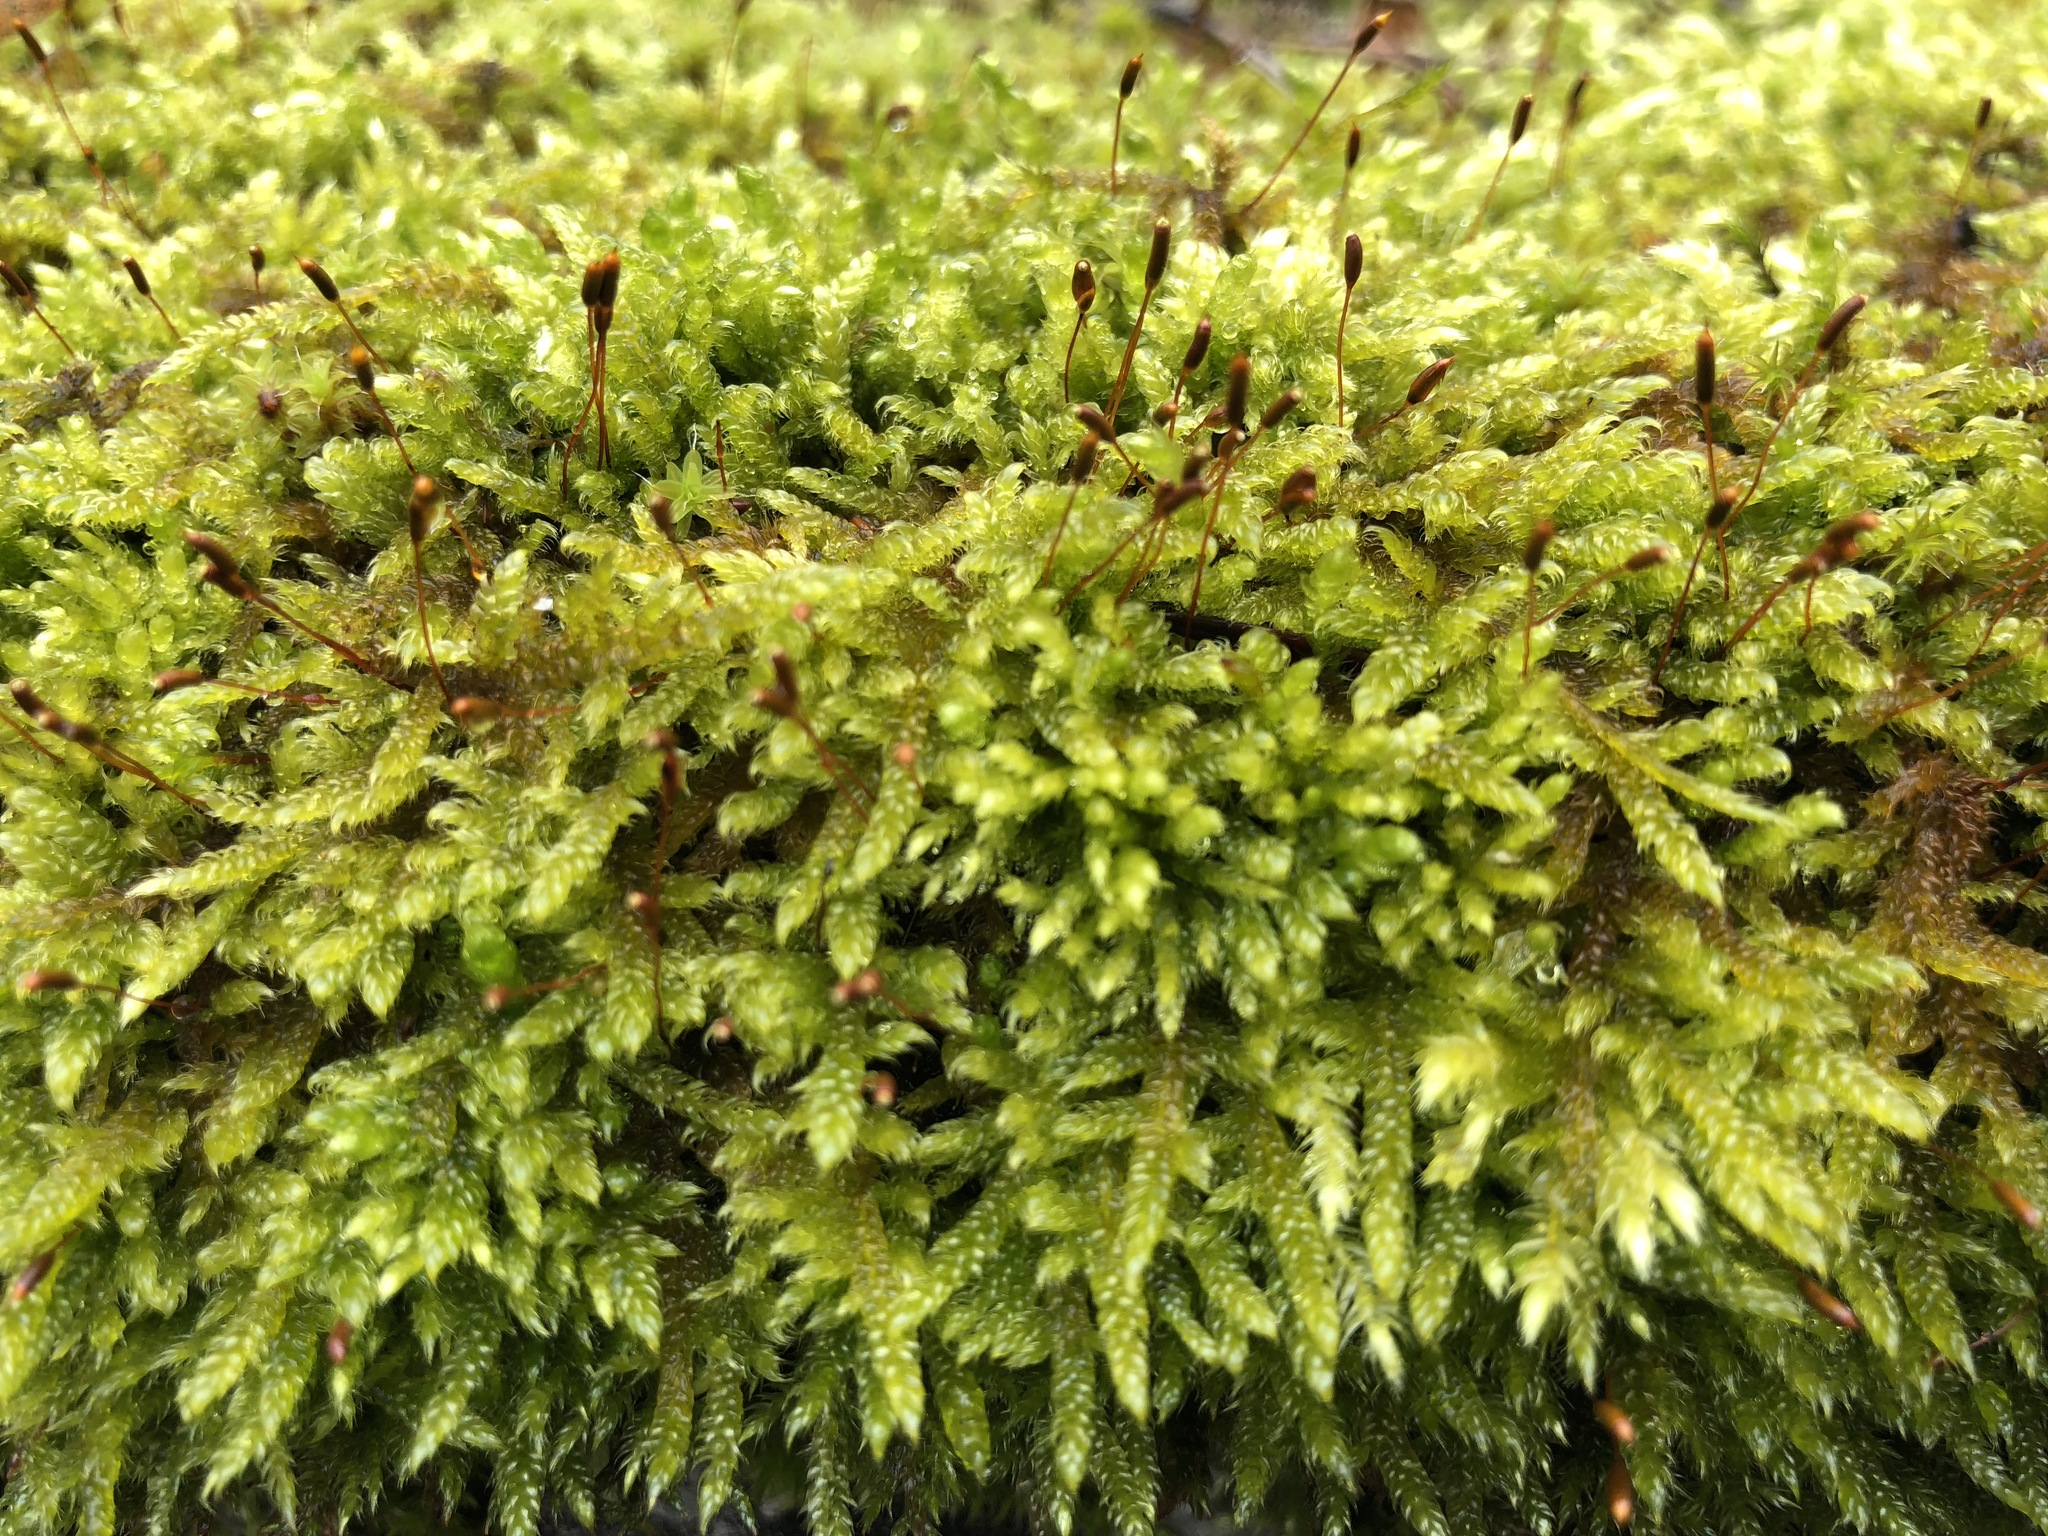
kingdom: Plantae
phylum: Bryophyta
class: Bryopsida
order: Hypnales
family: Hypnaceae
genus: Hypnum
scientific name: Hypnum cupressiforme
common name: Cypress-leaved plait-moss
